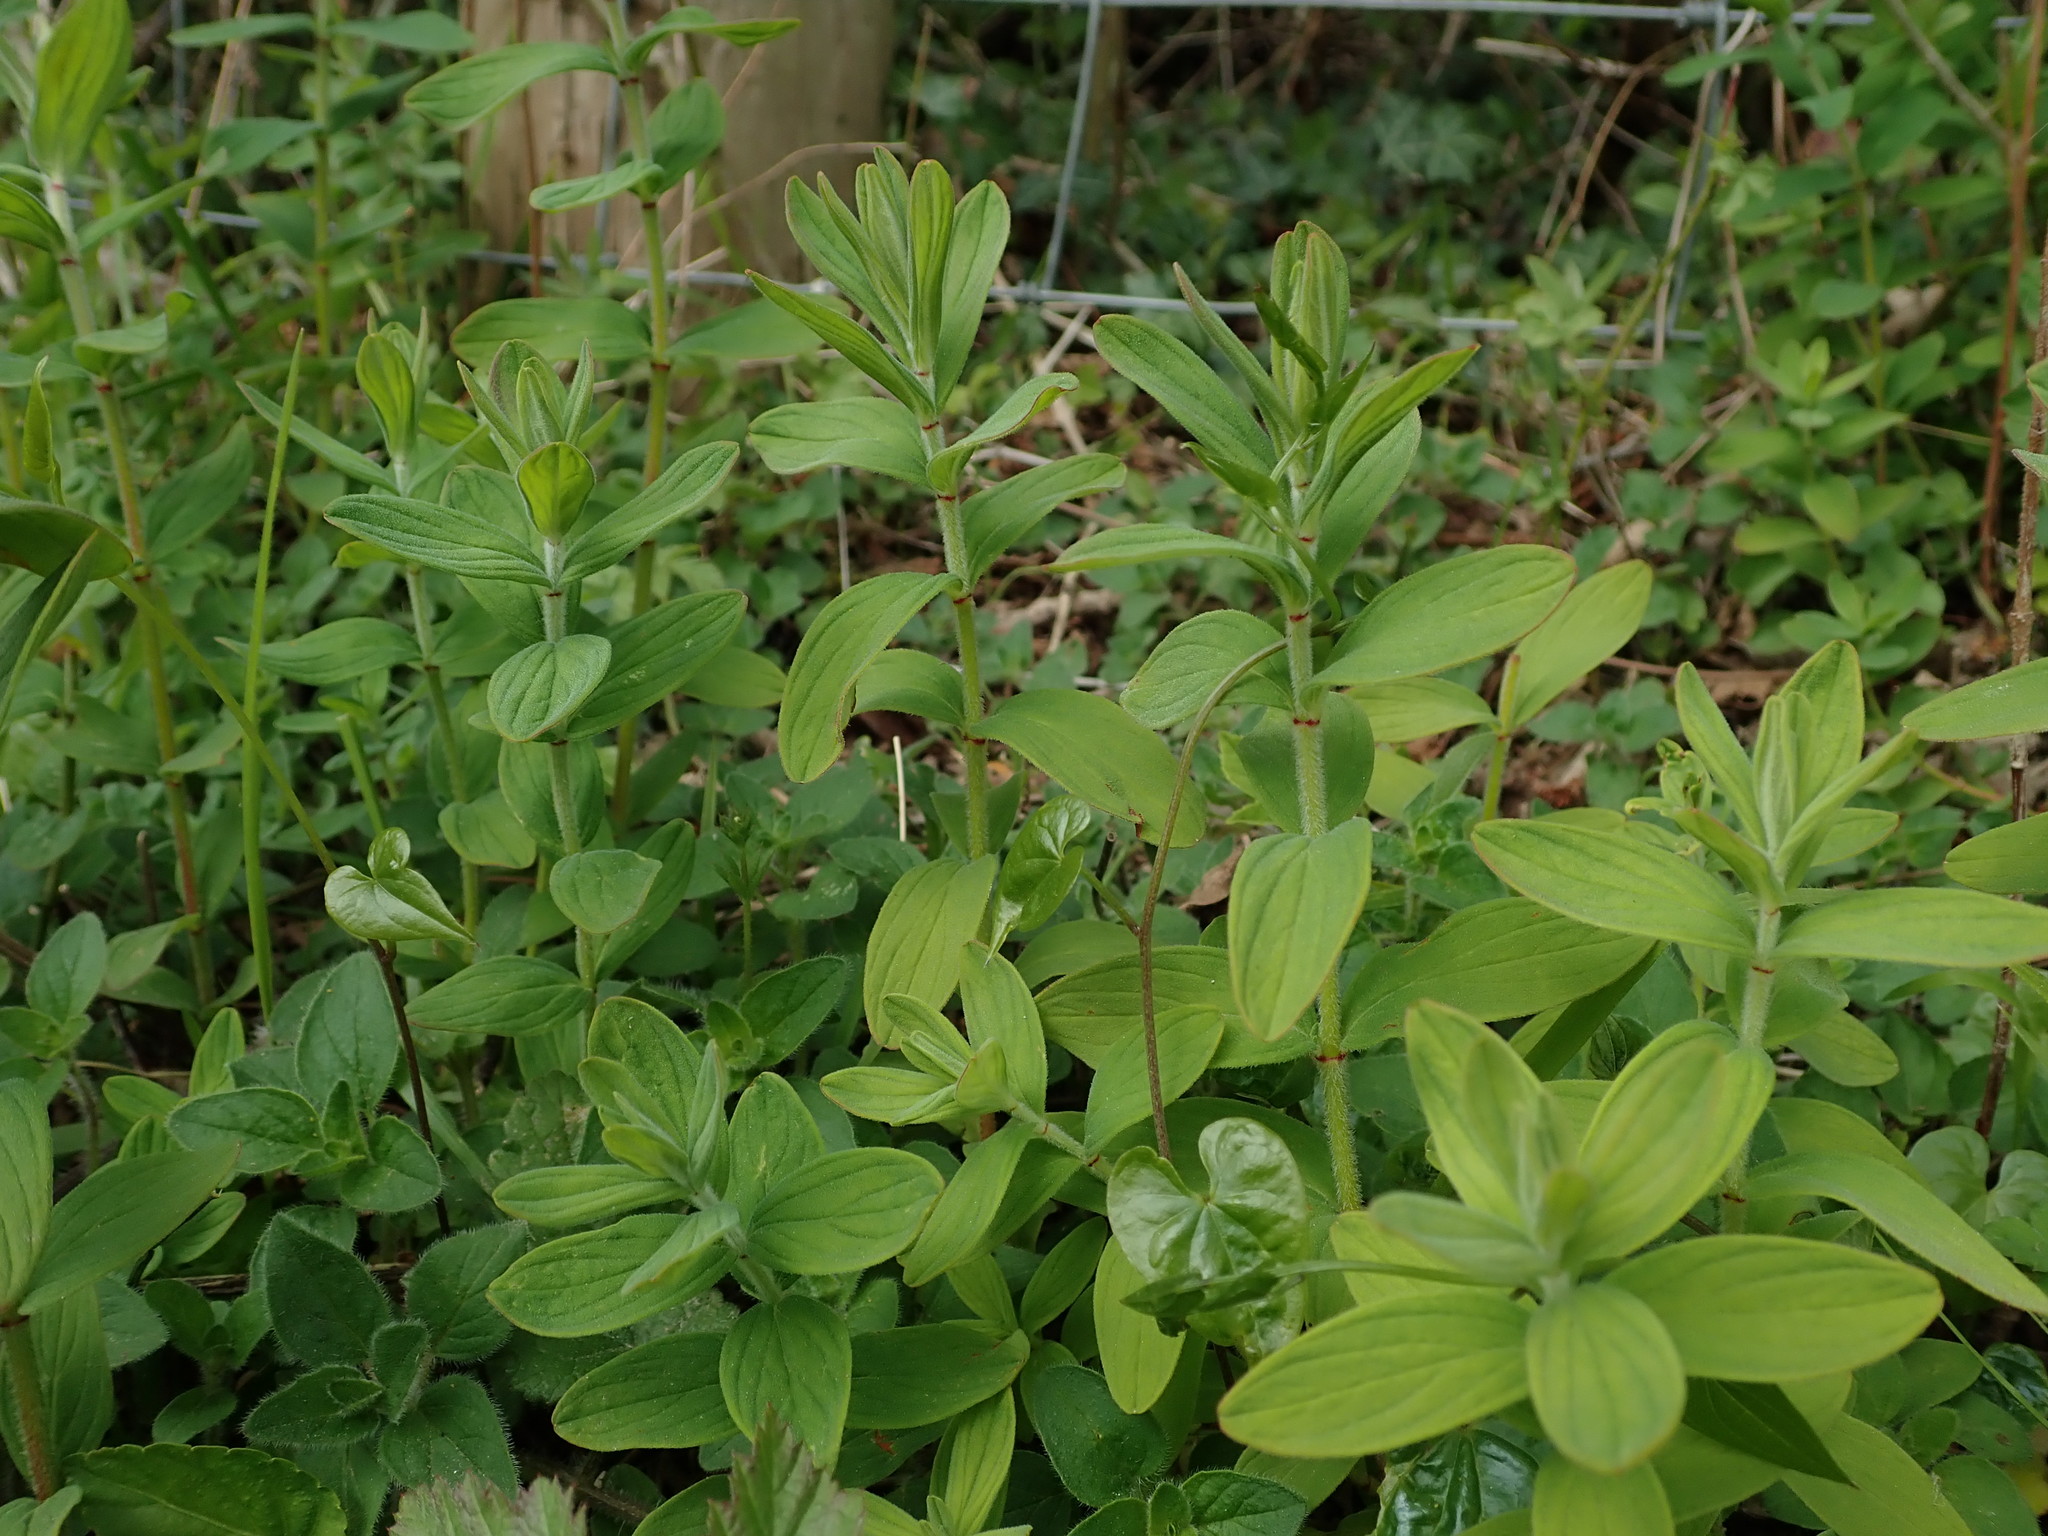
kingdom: Plantae
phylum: Tracheophyta
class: Magnoliopsida
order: Malpighiales
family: Hypericaceae
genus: Hypericum
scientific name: Hypericum hirsutum
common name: Hairy st. john's-wort
